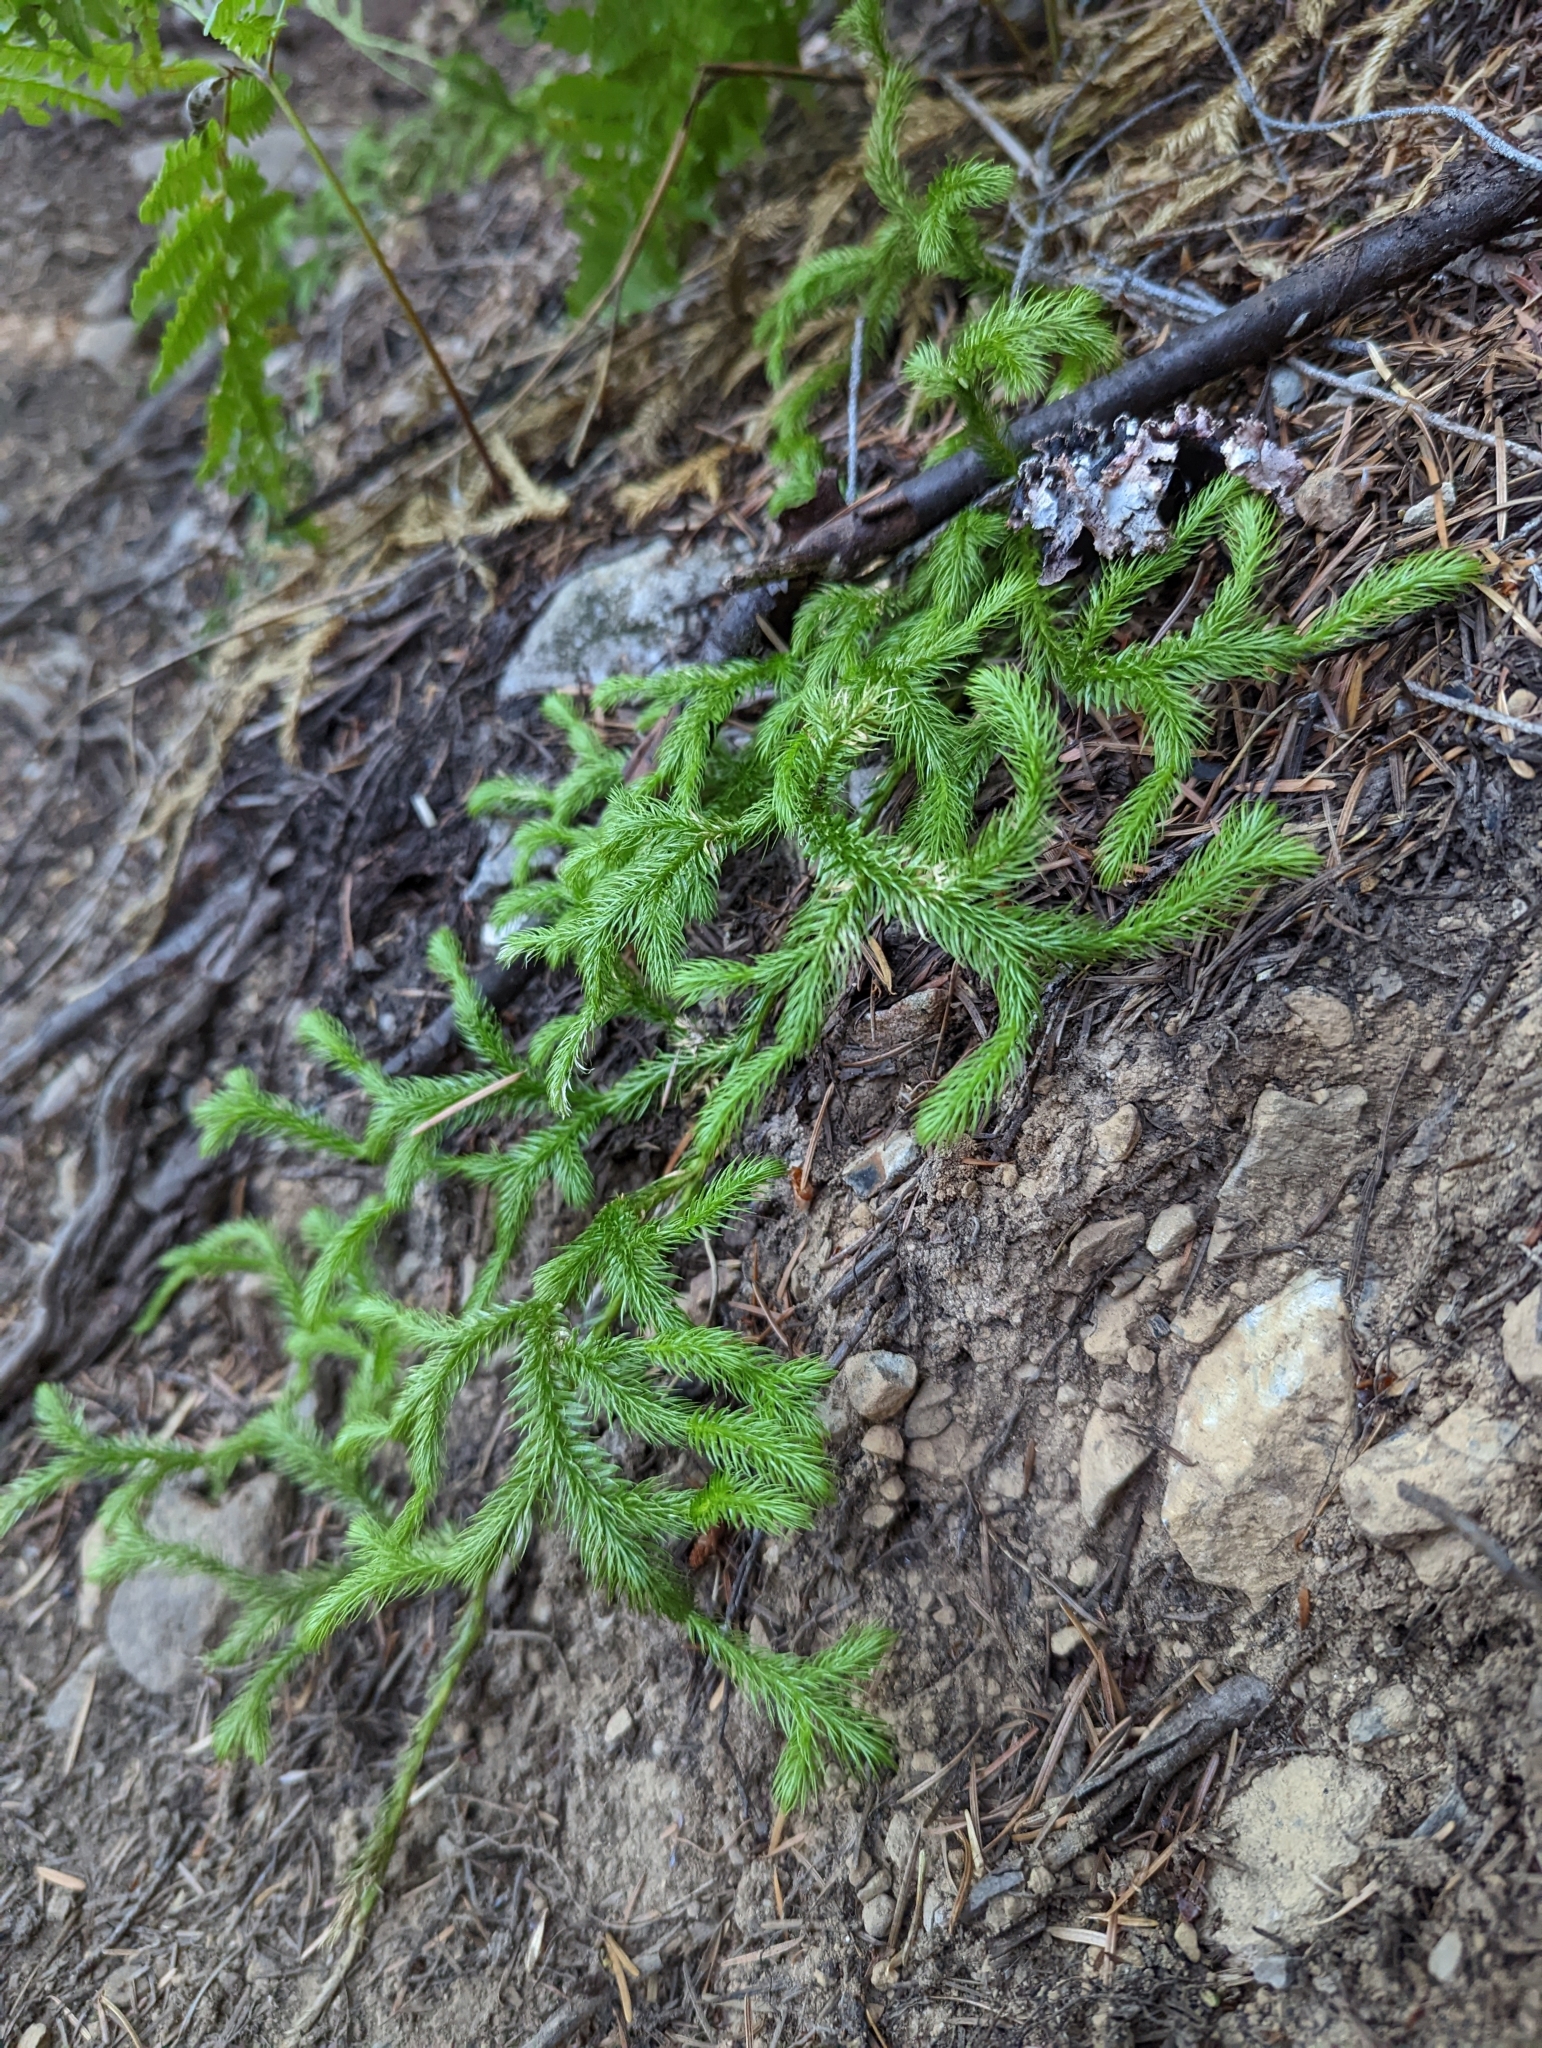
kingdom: Plantae
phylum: Tracheophyta
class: Lycopodiopsida
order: Lycopodiales
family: Lycopodiaceae
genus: Lycopodium
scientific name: Lycopodium clavatum
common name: Stag's-horn clubmoss
